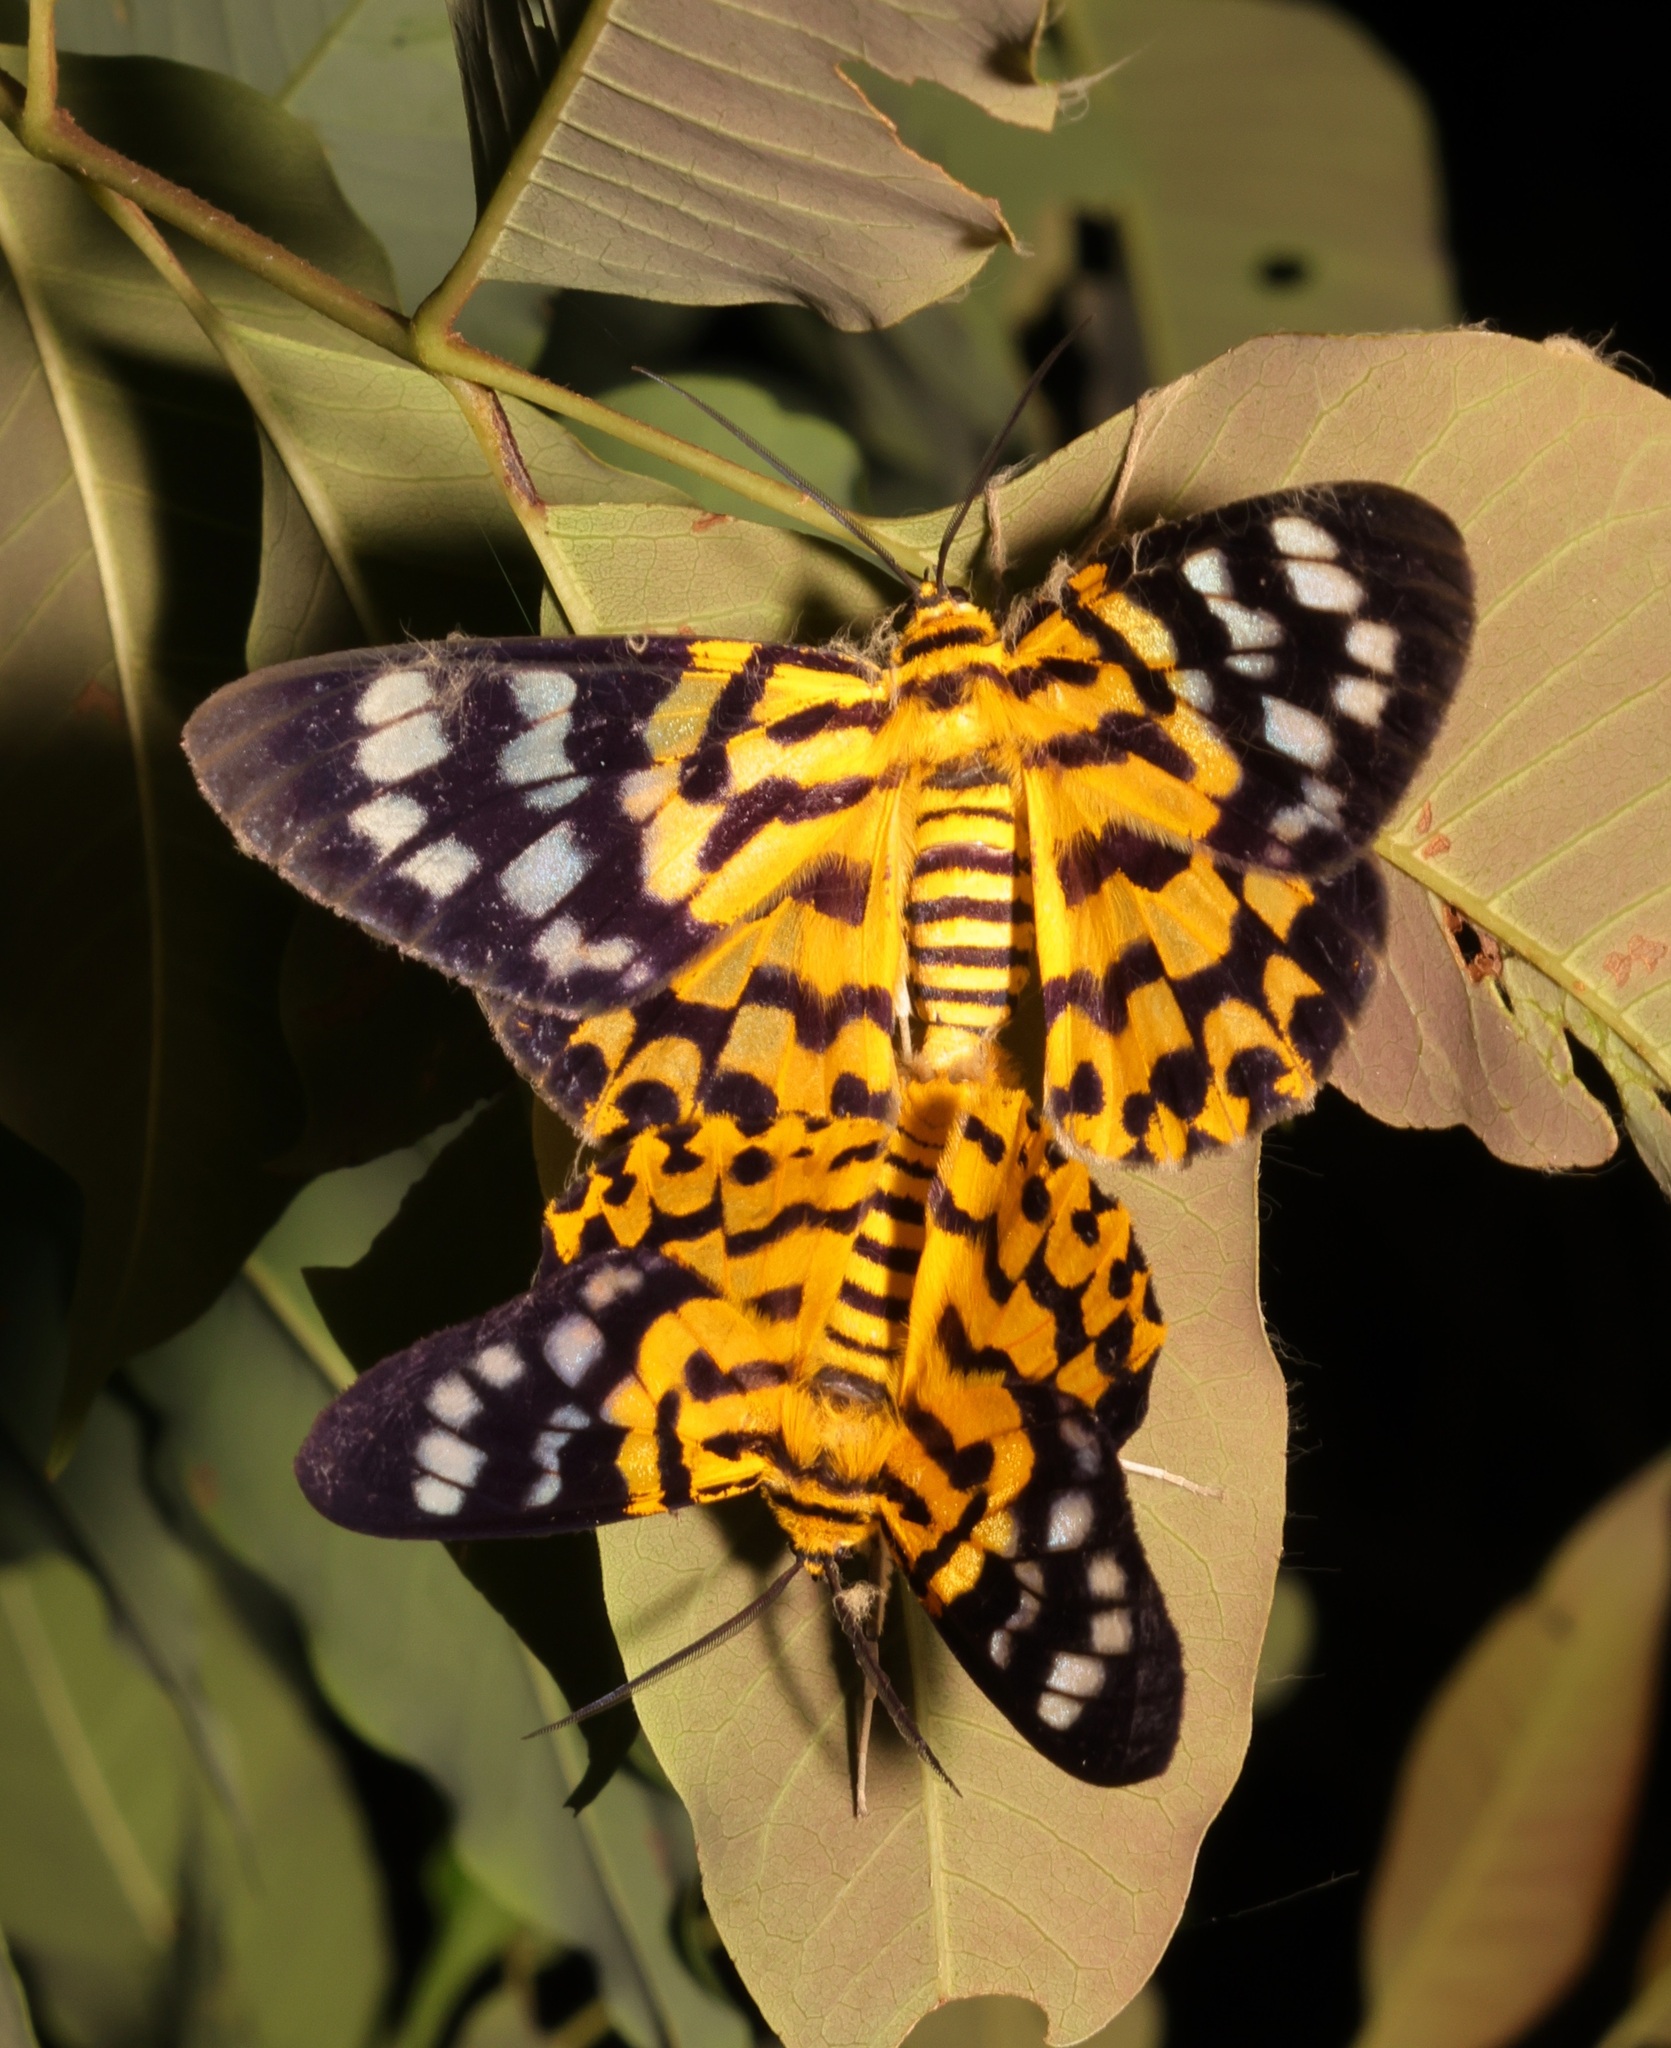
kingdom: Animalia
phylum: Arthropoda
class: Insecta
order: Lepidoptera
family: Geometridae
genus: Dysphania
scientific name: Dysphania militaris
